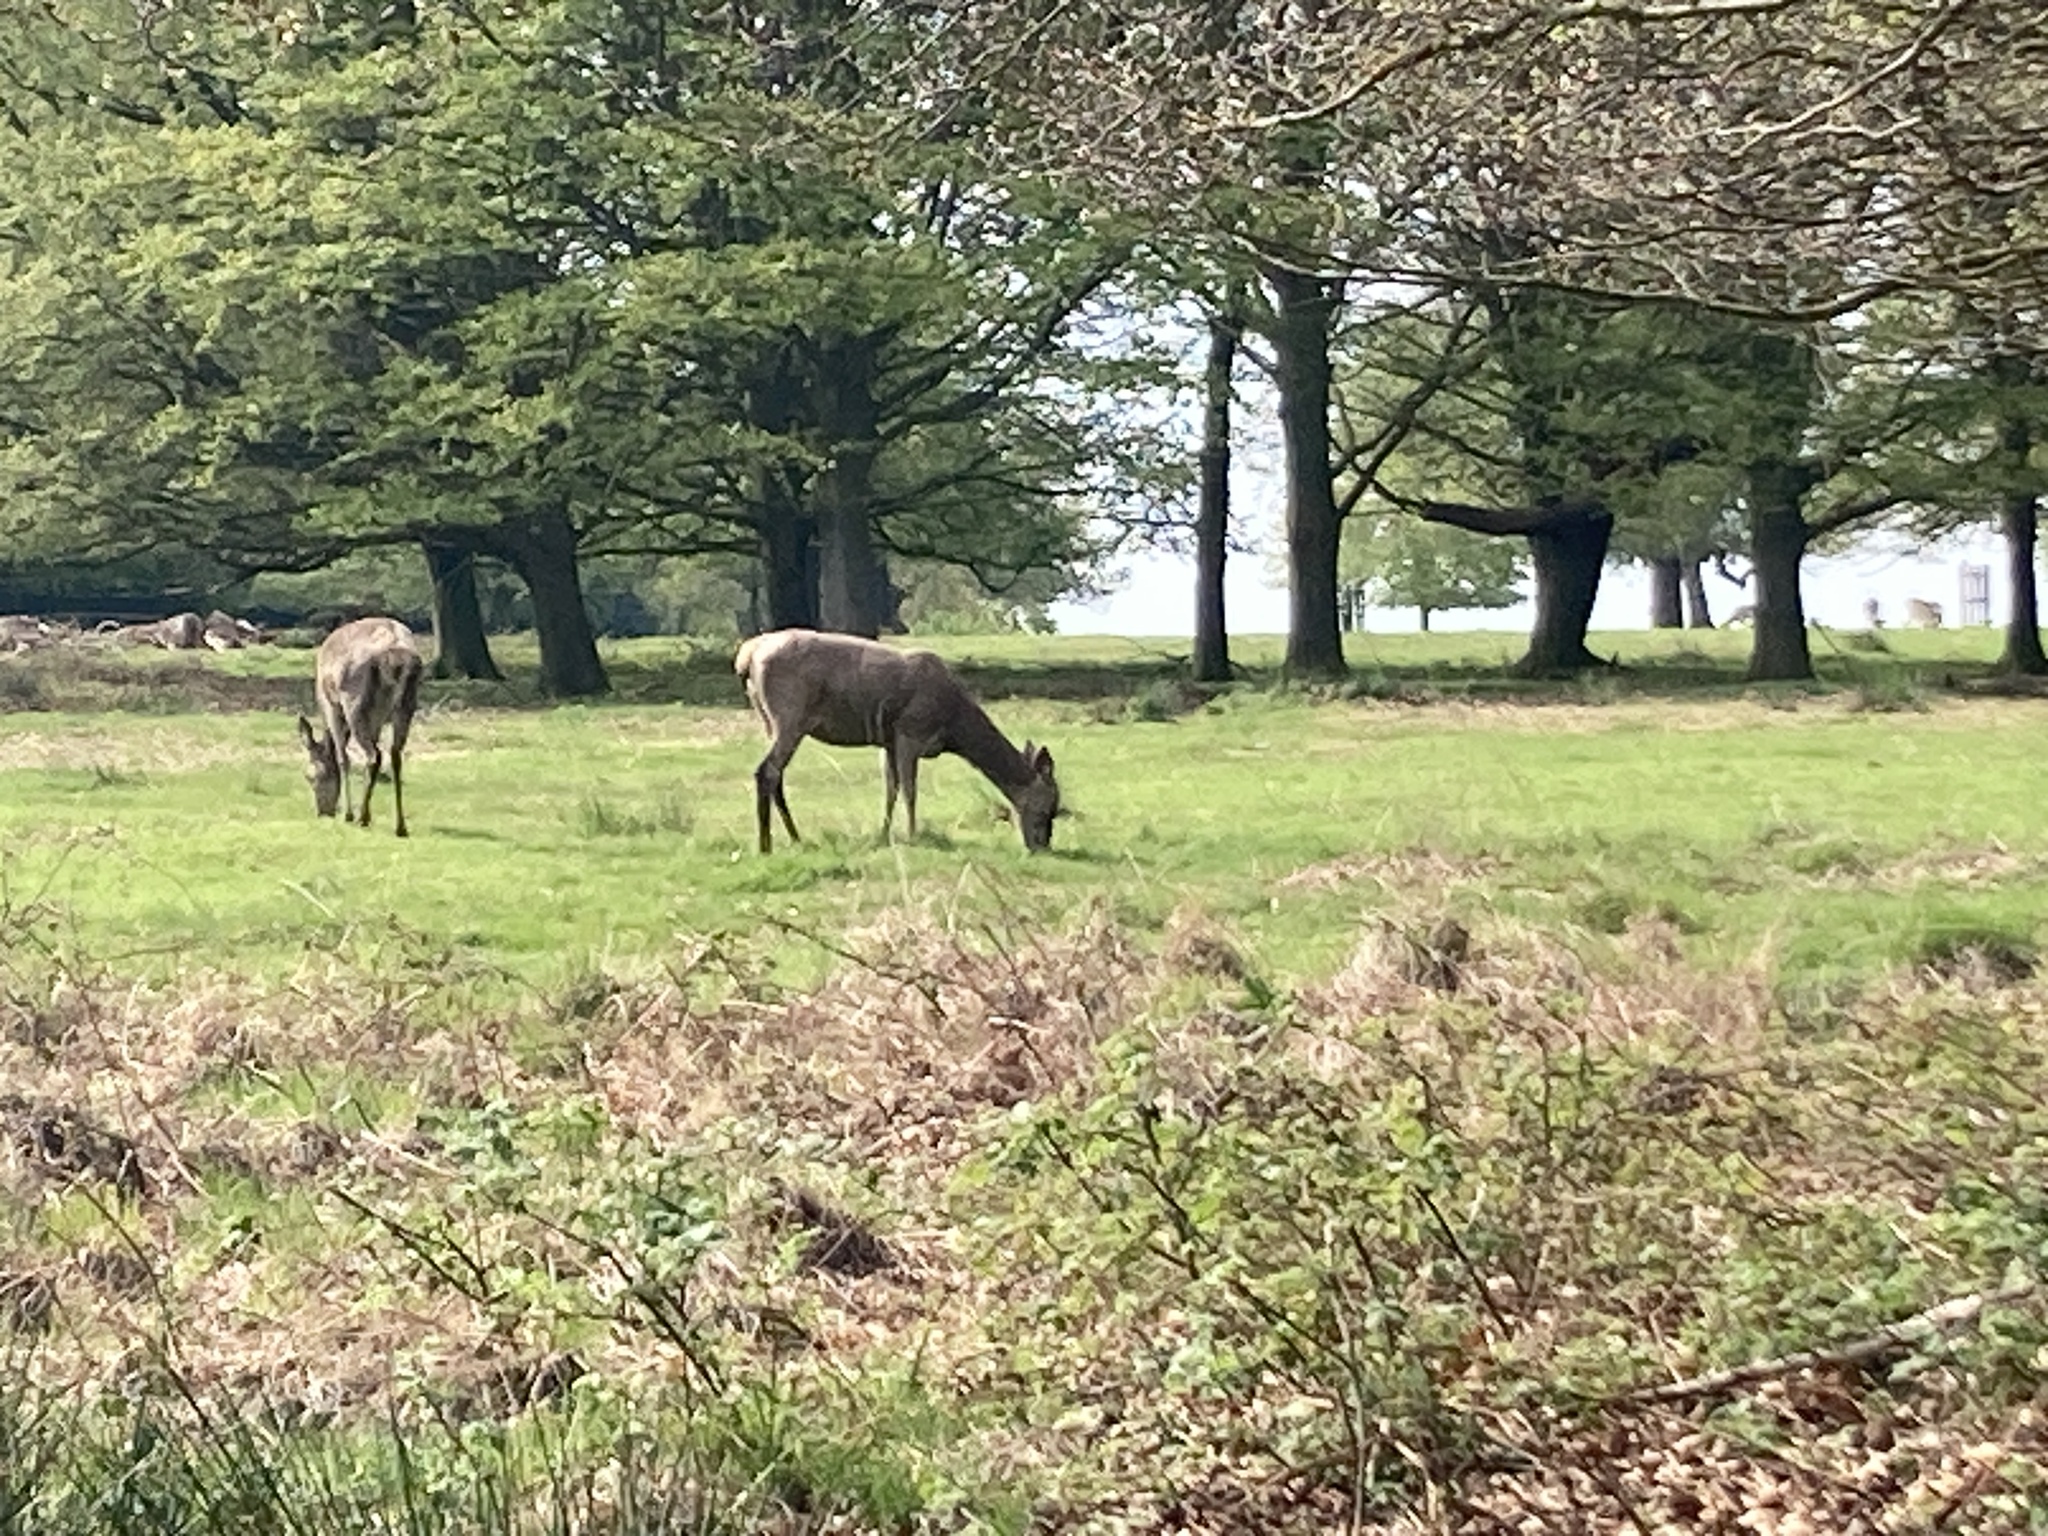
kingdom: Animalia
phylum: Chordata
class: Mammalia
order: Artiodactyla
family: Cervidae
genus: Cervus
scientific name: Cervus elaphus
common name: Red deer
